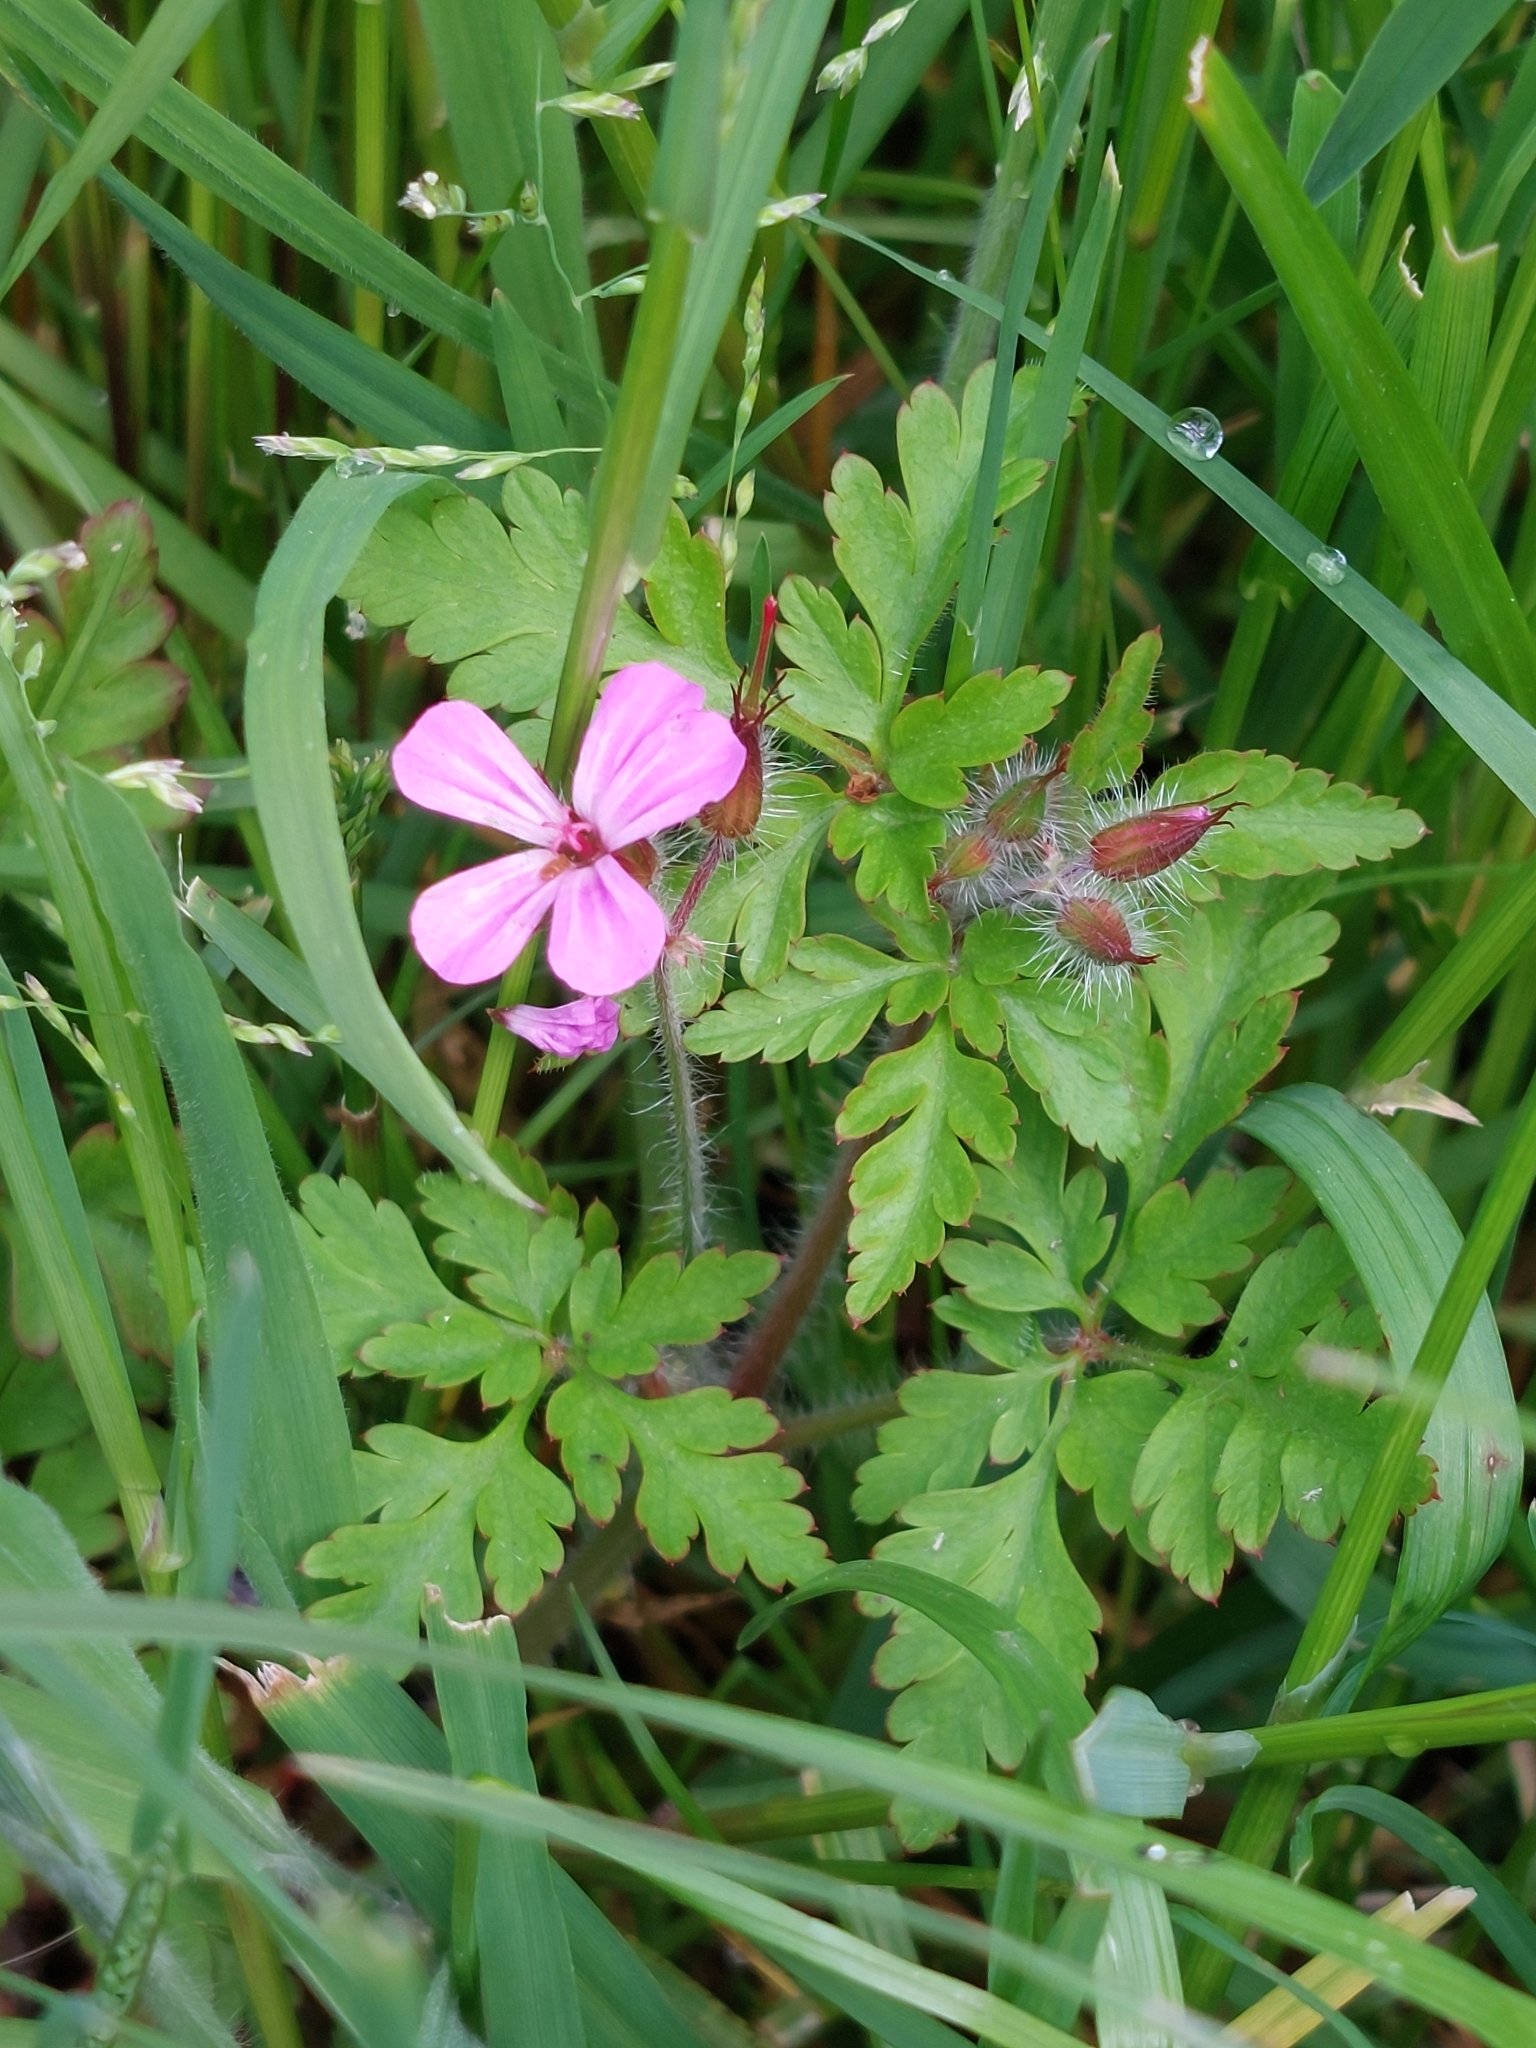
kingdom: Plantae
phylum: Tracheophyta
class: Magnoliopsida
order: Geraniales
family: Geraniaceae
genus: Geranium
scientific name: Geranium robertianum
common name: Herb-robert
